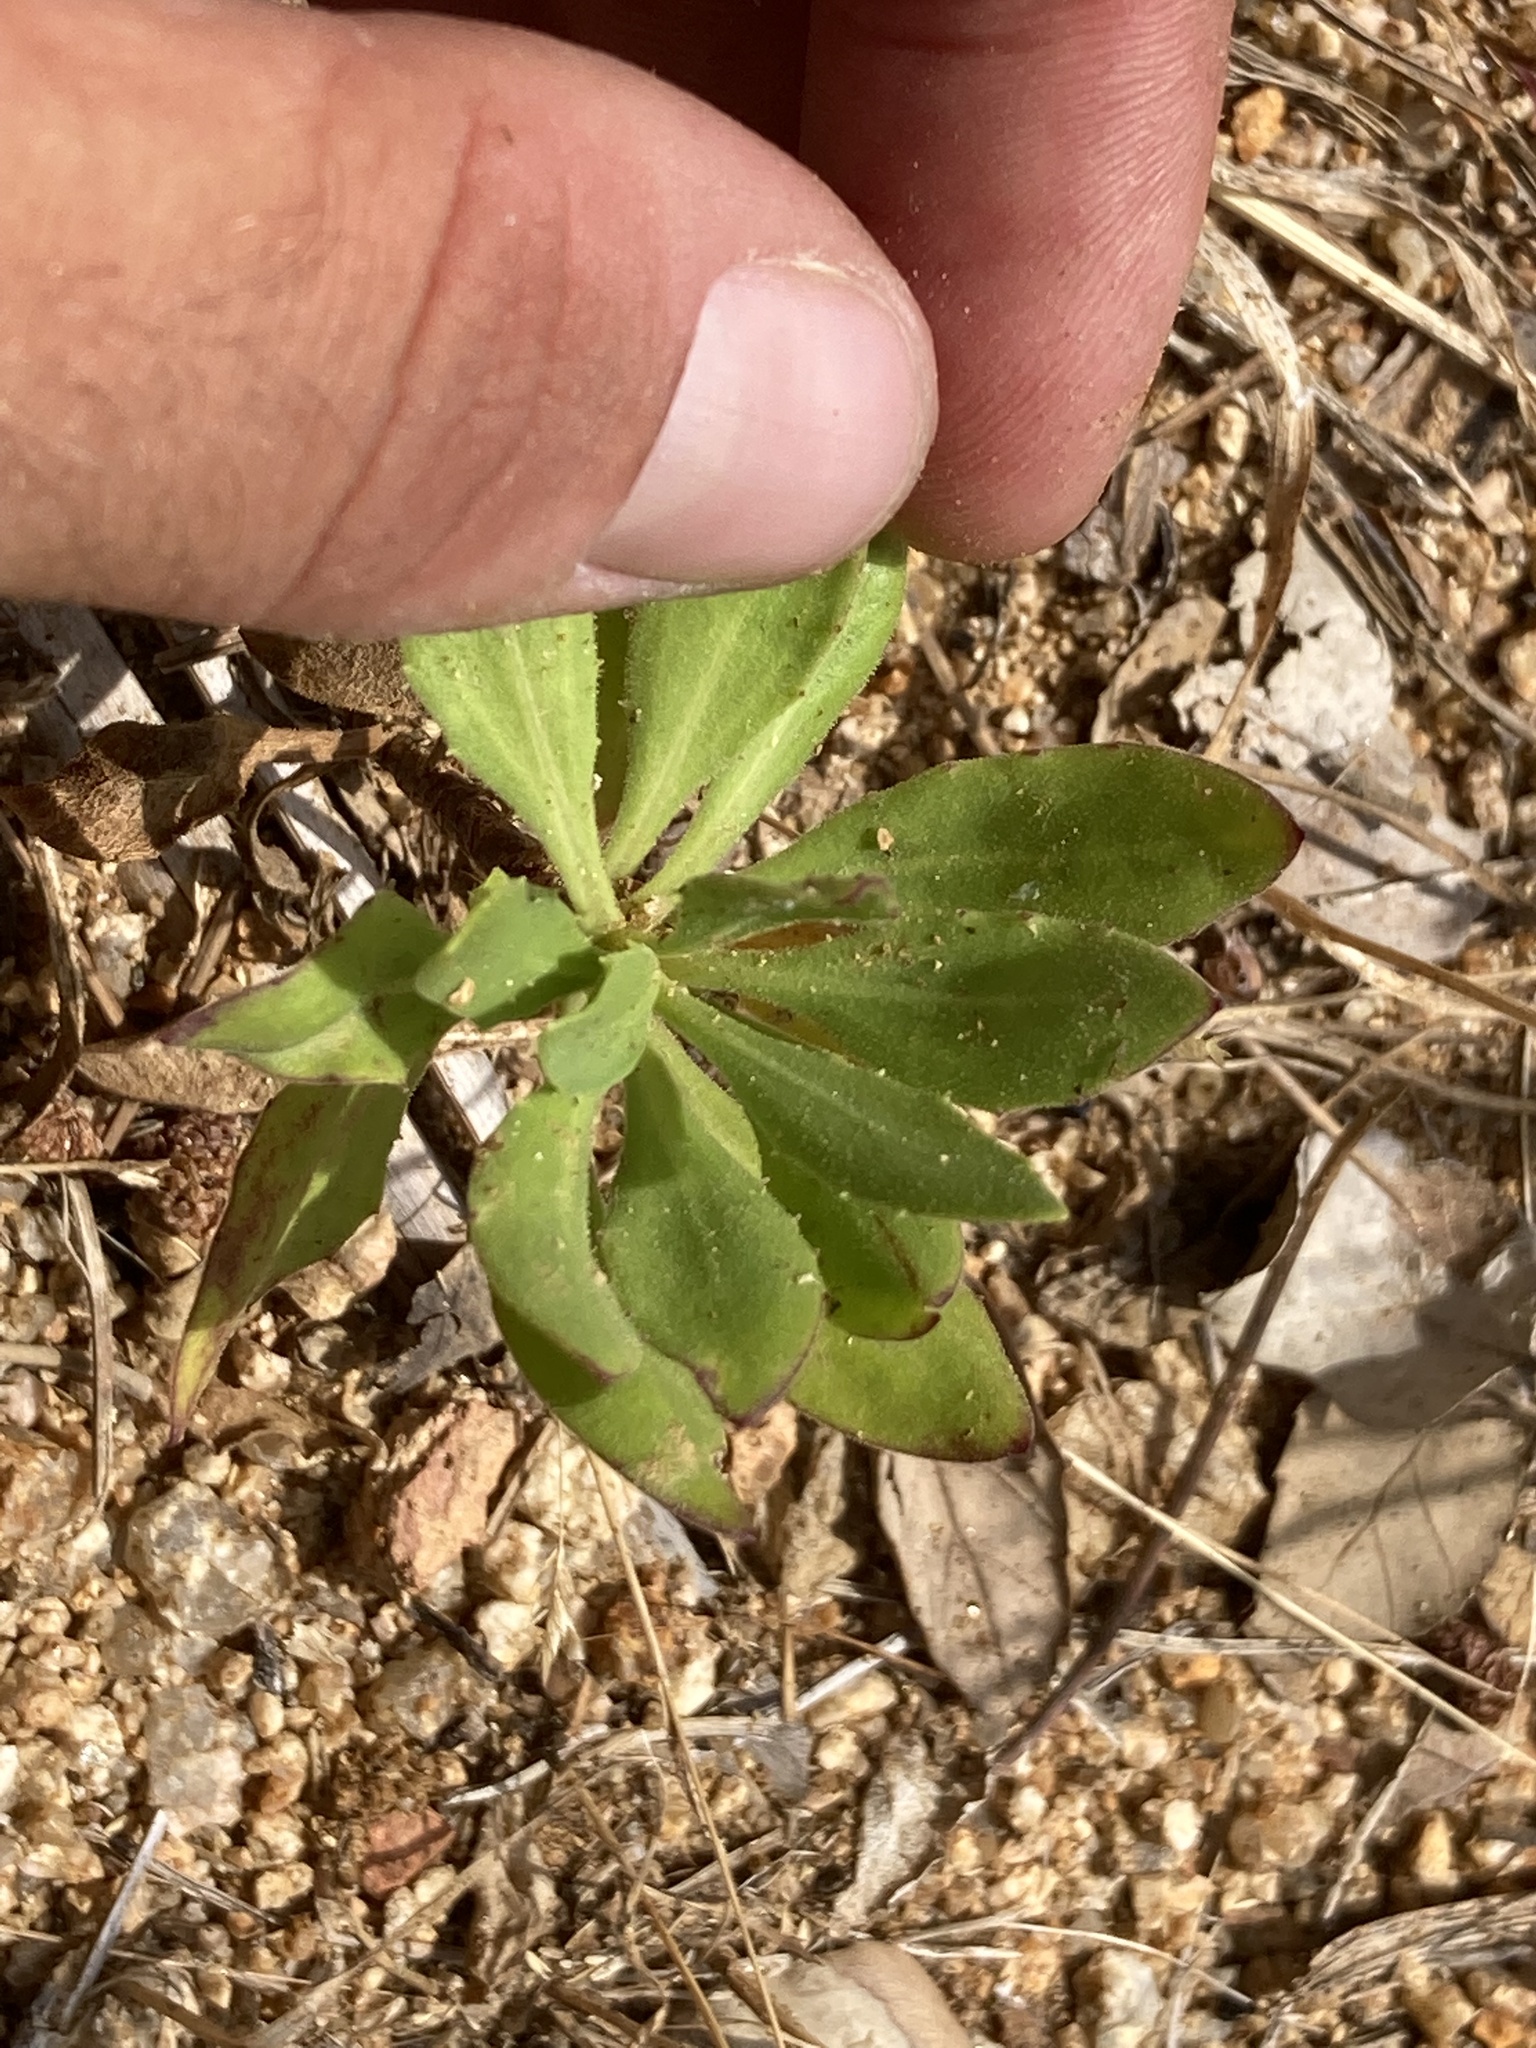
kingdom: Plantae
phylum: Tracheophyta
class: Magnoliopsida
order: Asterales
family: Asteraceae
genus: Dimorphotheca
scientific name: Dimorphotheca ecklonis
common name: Vanstaden's river daisy
